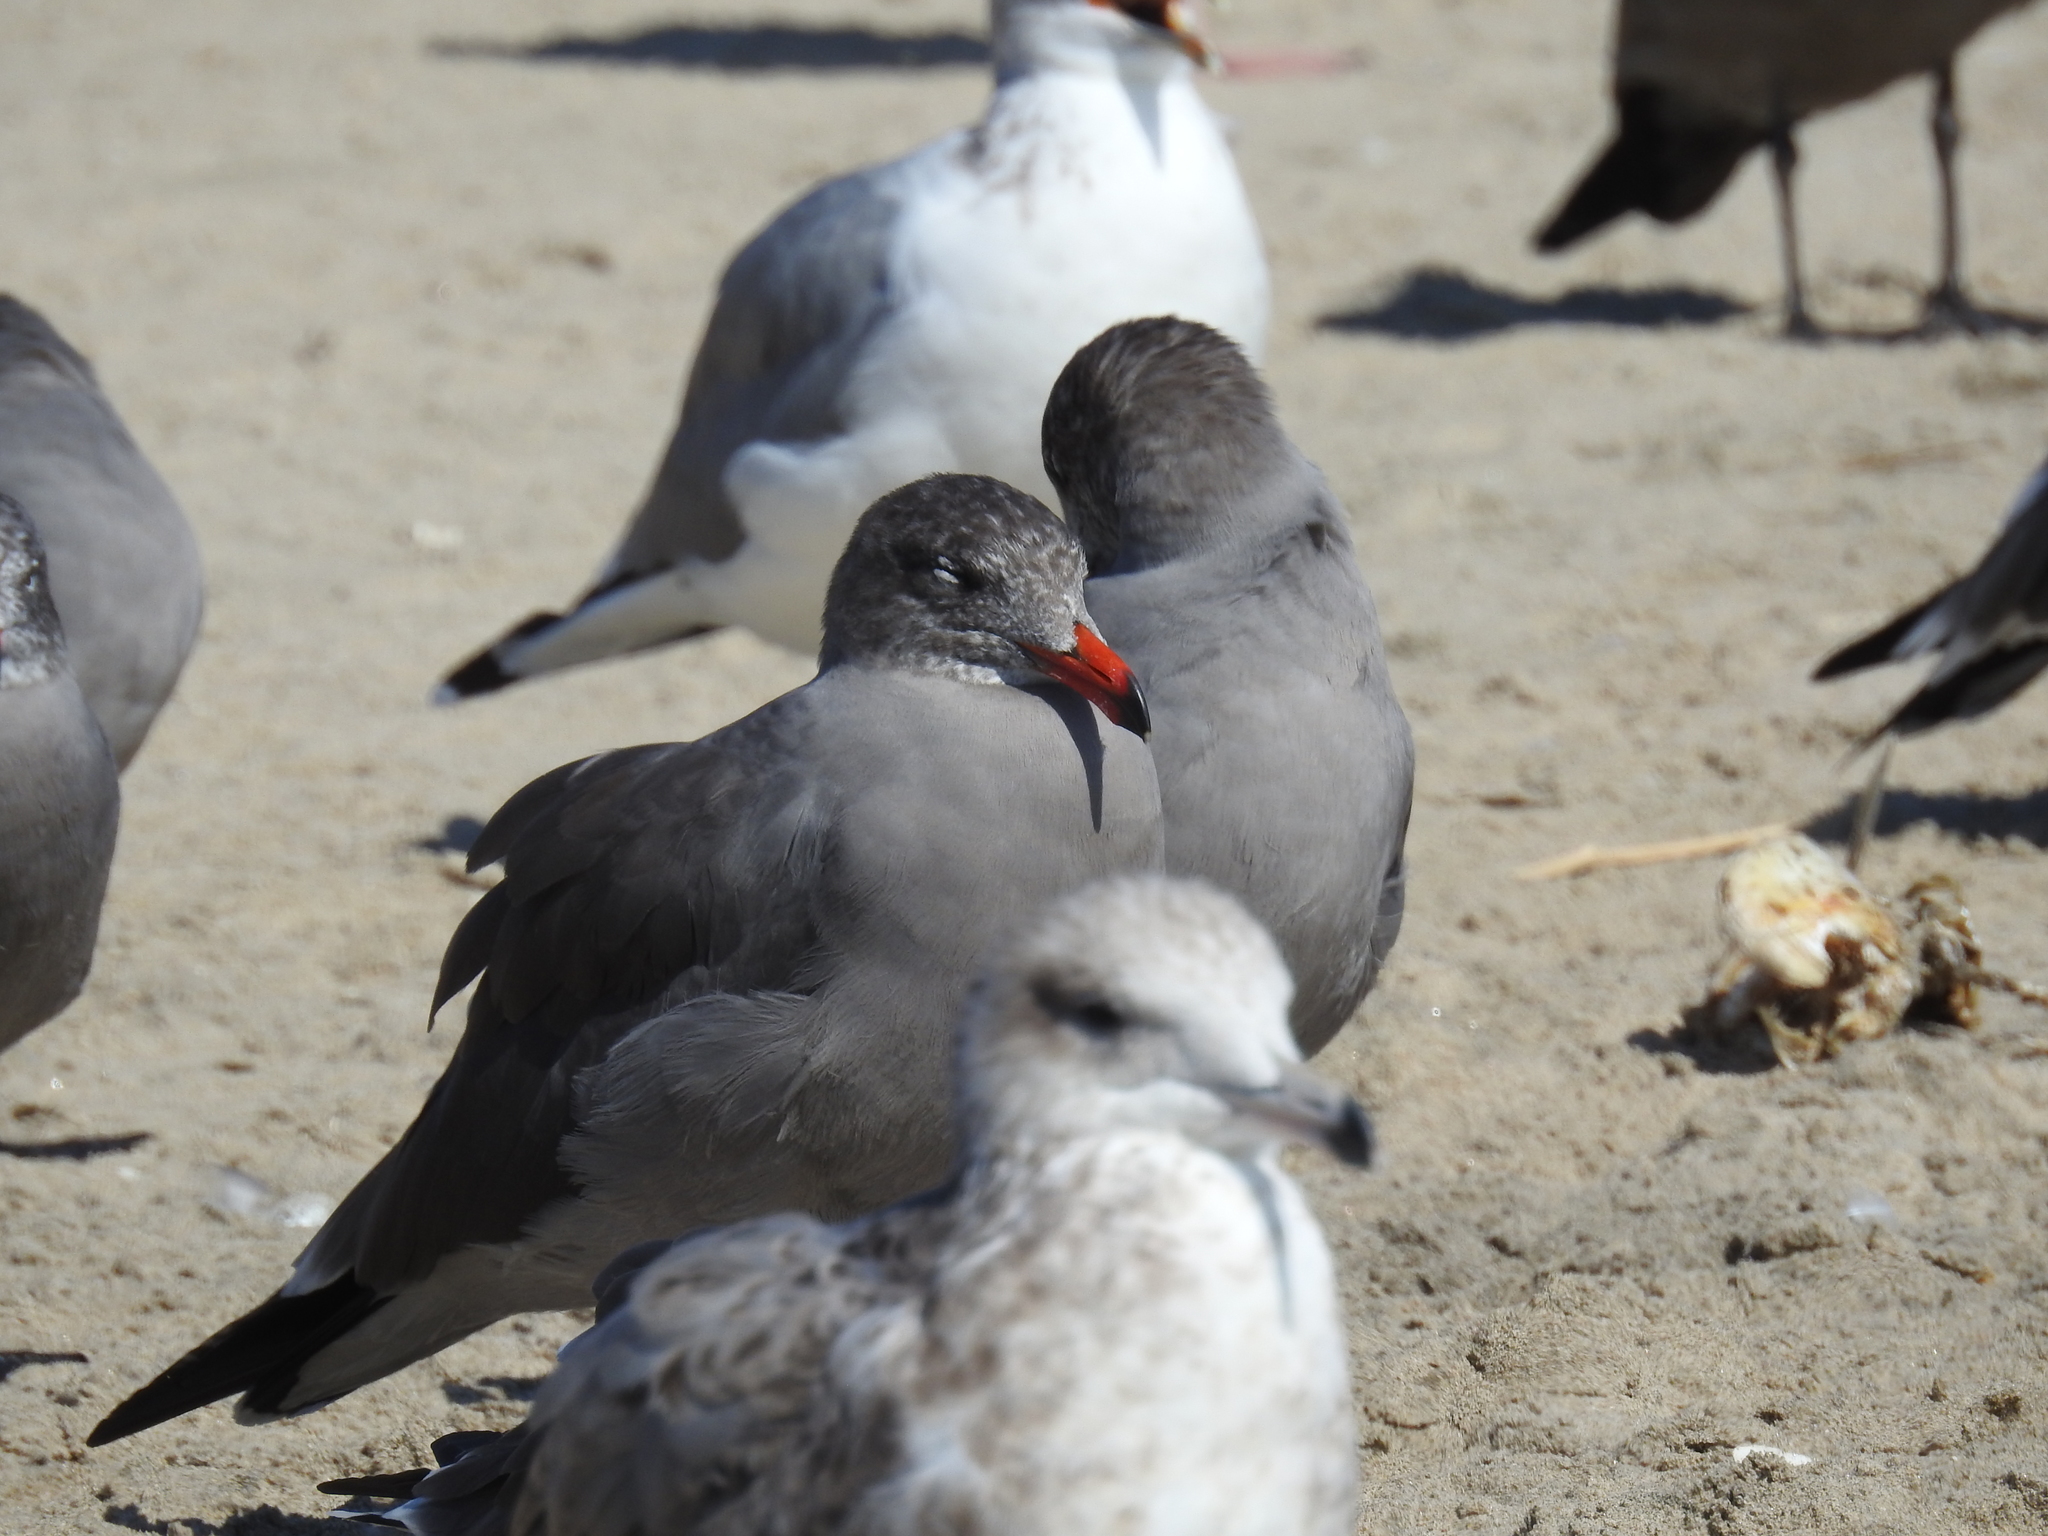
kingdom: Animalia
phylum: Chordata
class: Aves
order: Charadriiformes
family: Laridae
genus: Larus
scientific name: Larus heermanni
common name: Heermann's gull
